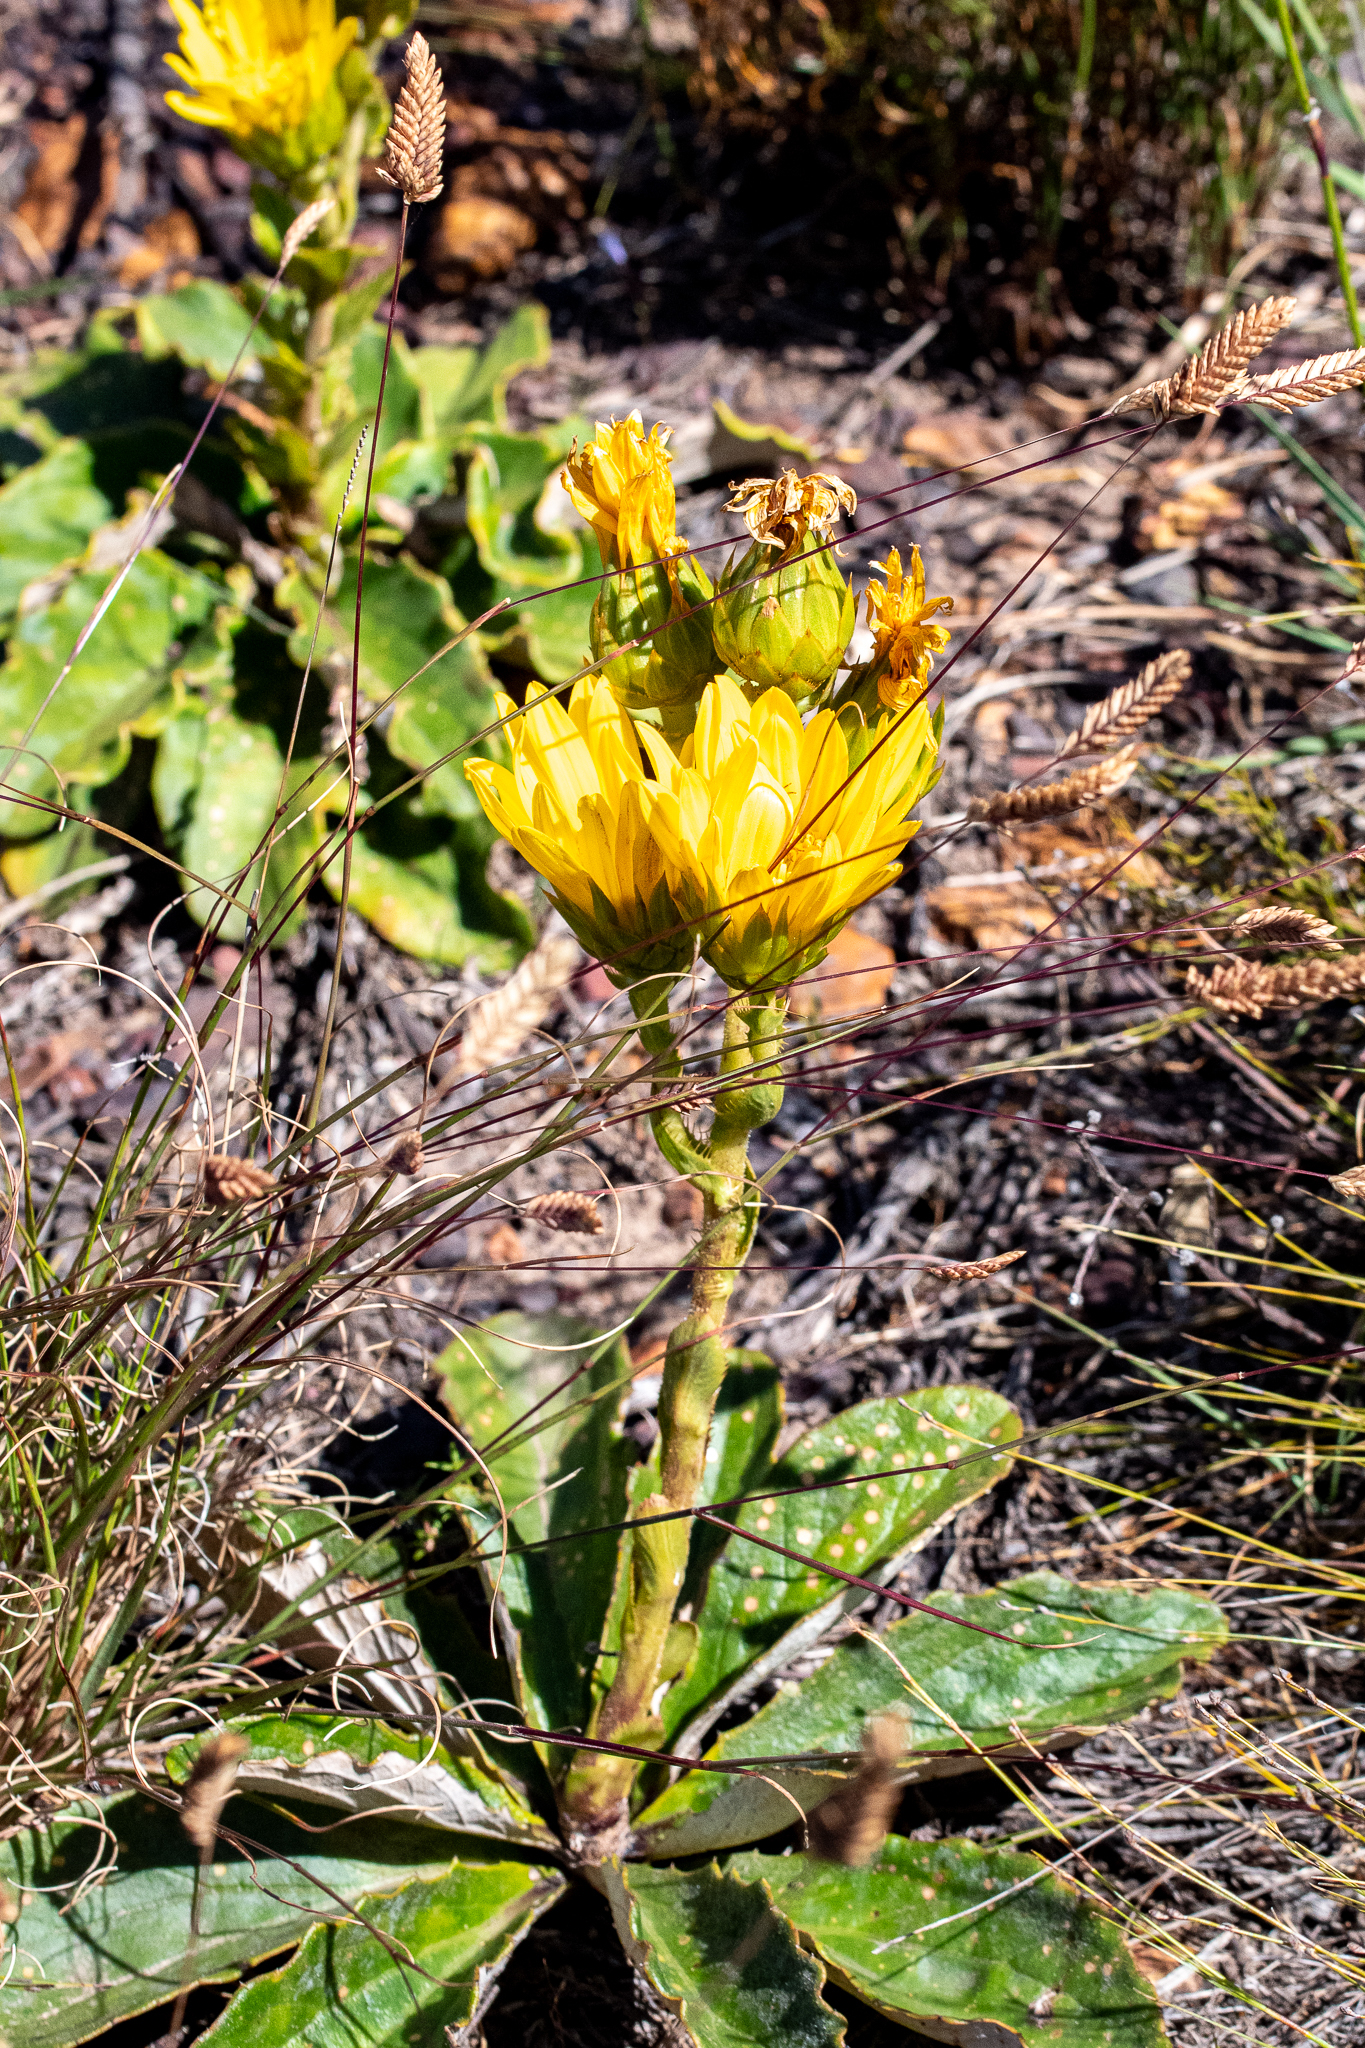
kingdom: Plantae
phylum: Tracheophyta
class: Magnoliopsida
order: Asterales
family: Asteraceae
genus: Berkheya
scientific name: Berkheya herbacea
